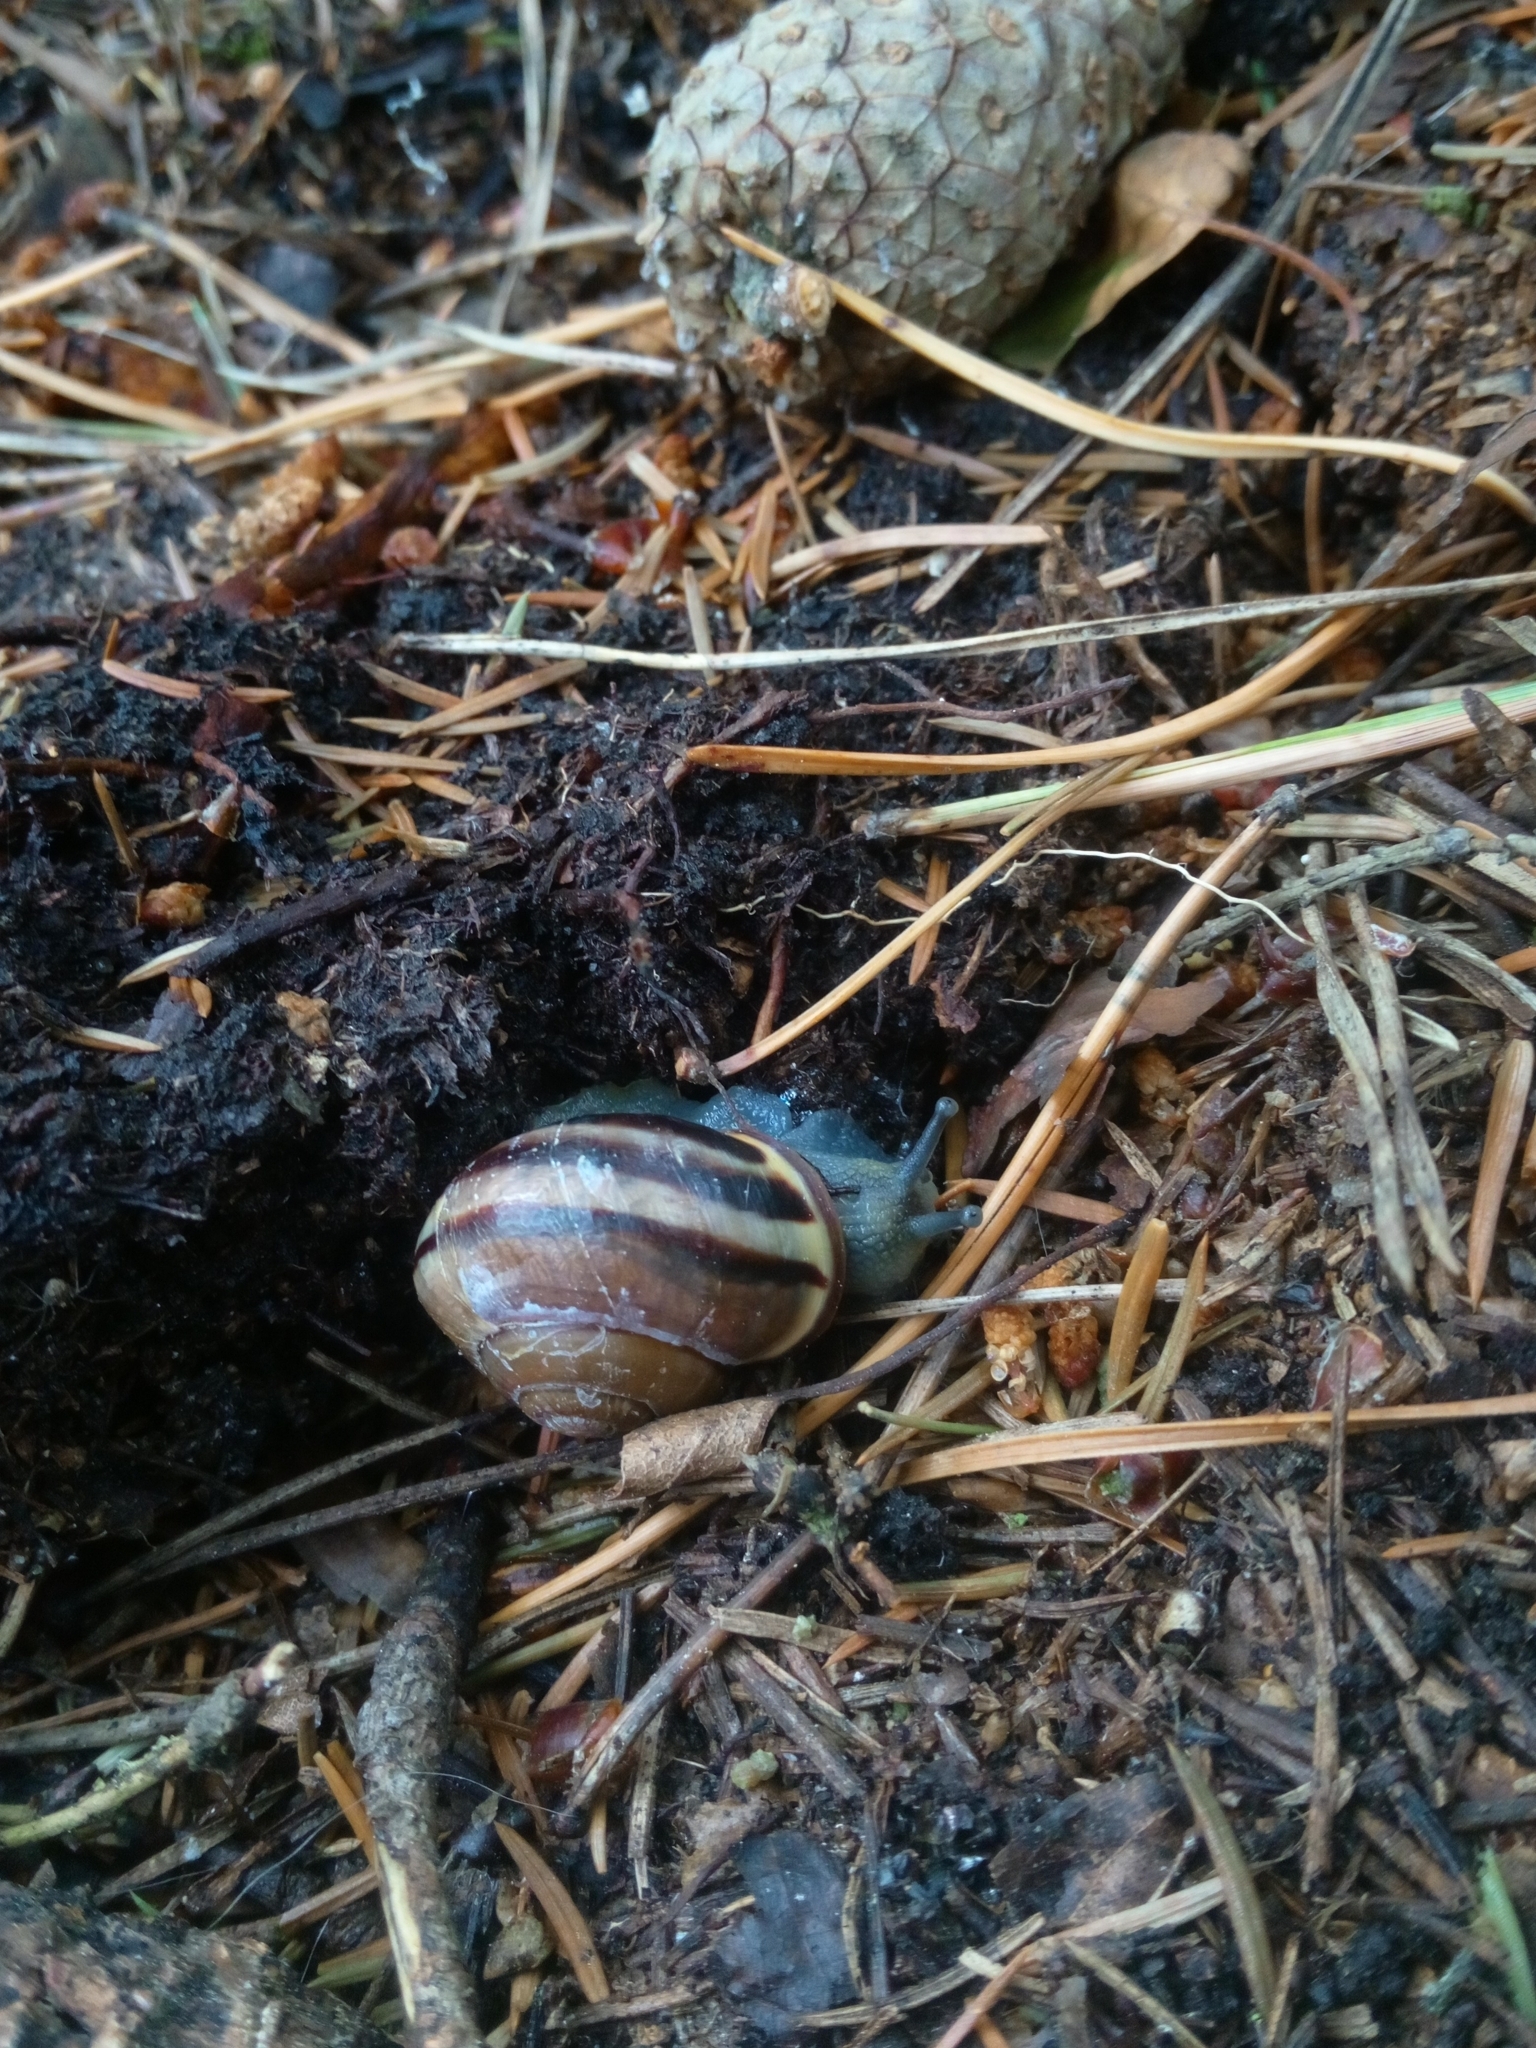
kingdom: Animalia
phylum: Mollusca
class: Gastropoda
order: Stylommatophora
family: Helicidae
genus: Cepaea
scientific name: Cepaea nemoralis
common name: Grovesnail
